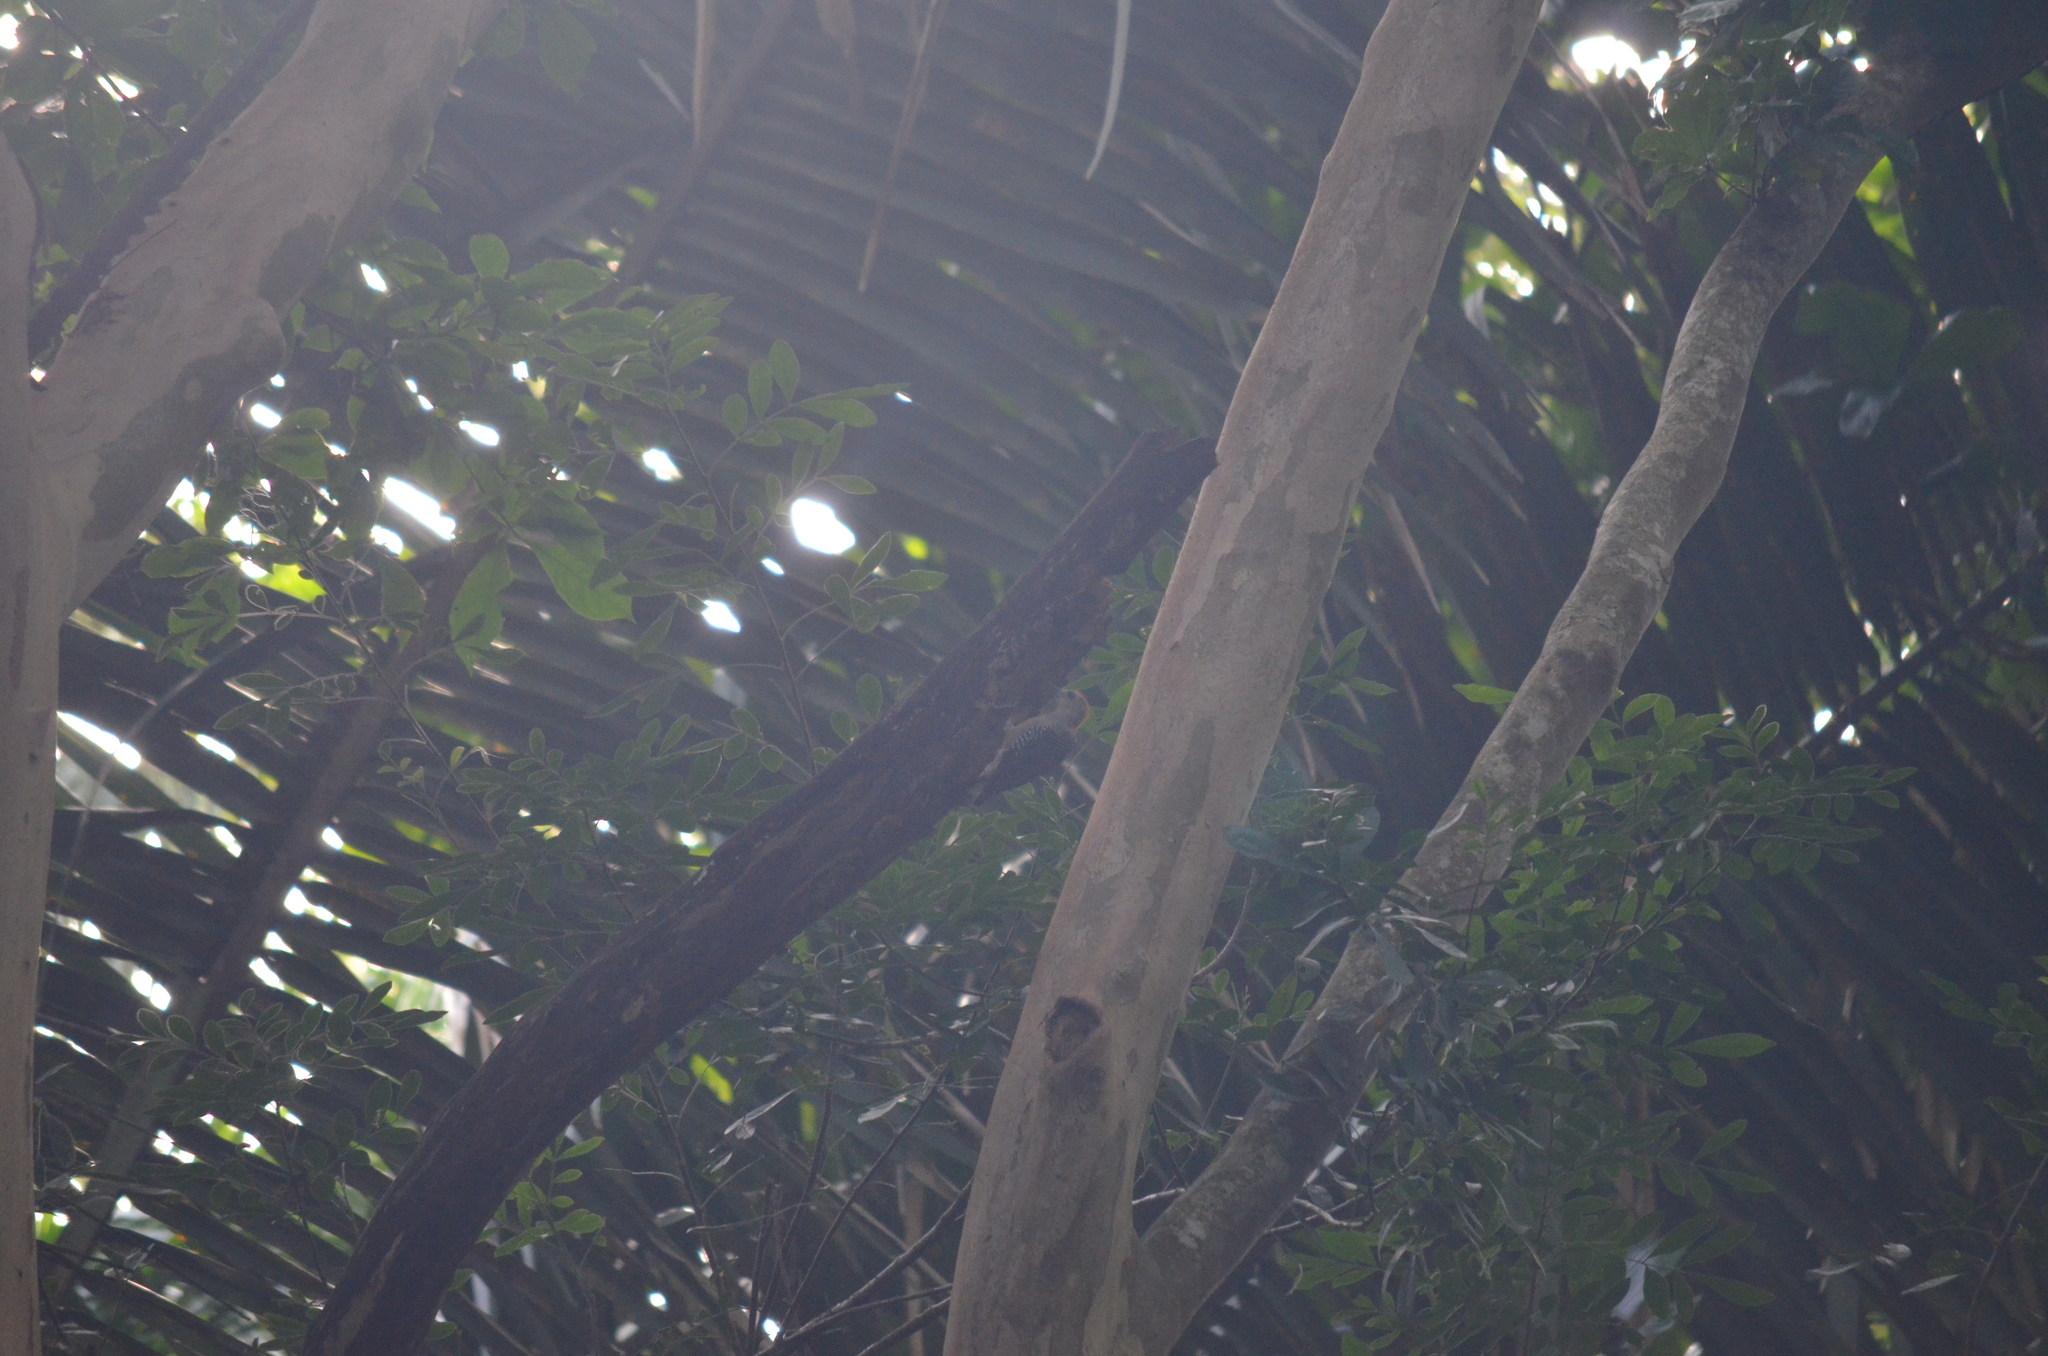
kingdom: Animalia
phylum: Chordata
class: Aves
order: Piciformes
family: Picidae
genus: Melanerpes
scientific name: Melanerpes hoffmannii
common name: Hoffmann's woodpecker
